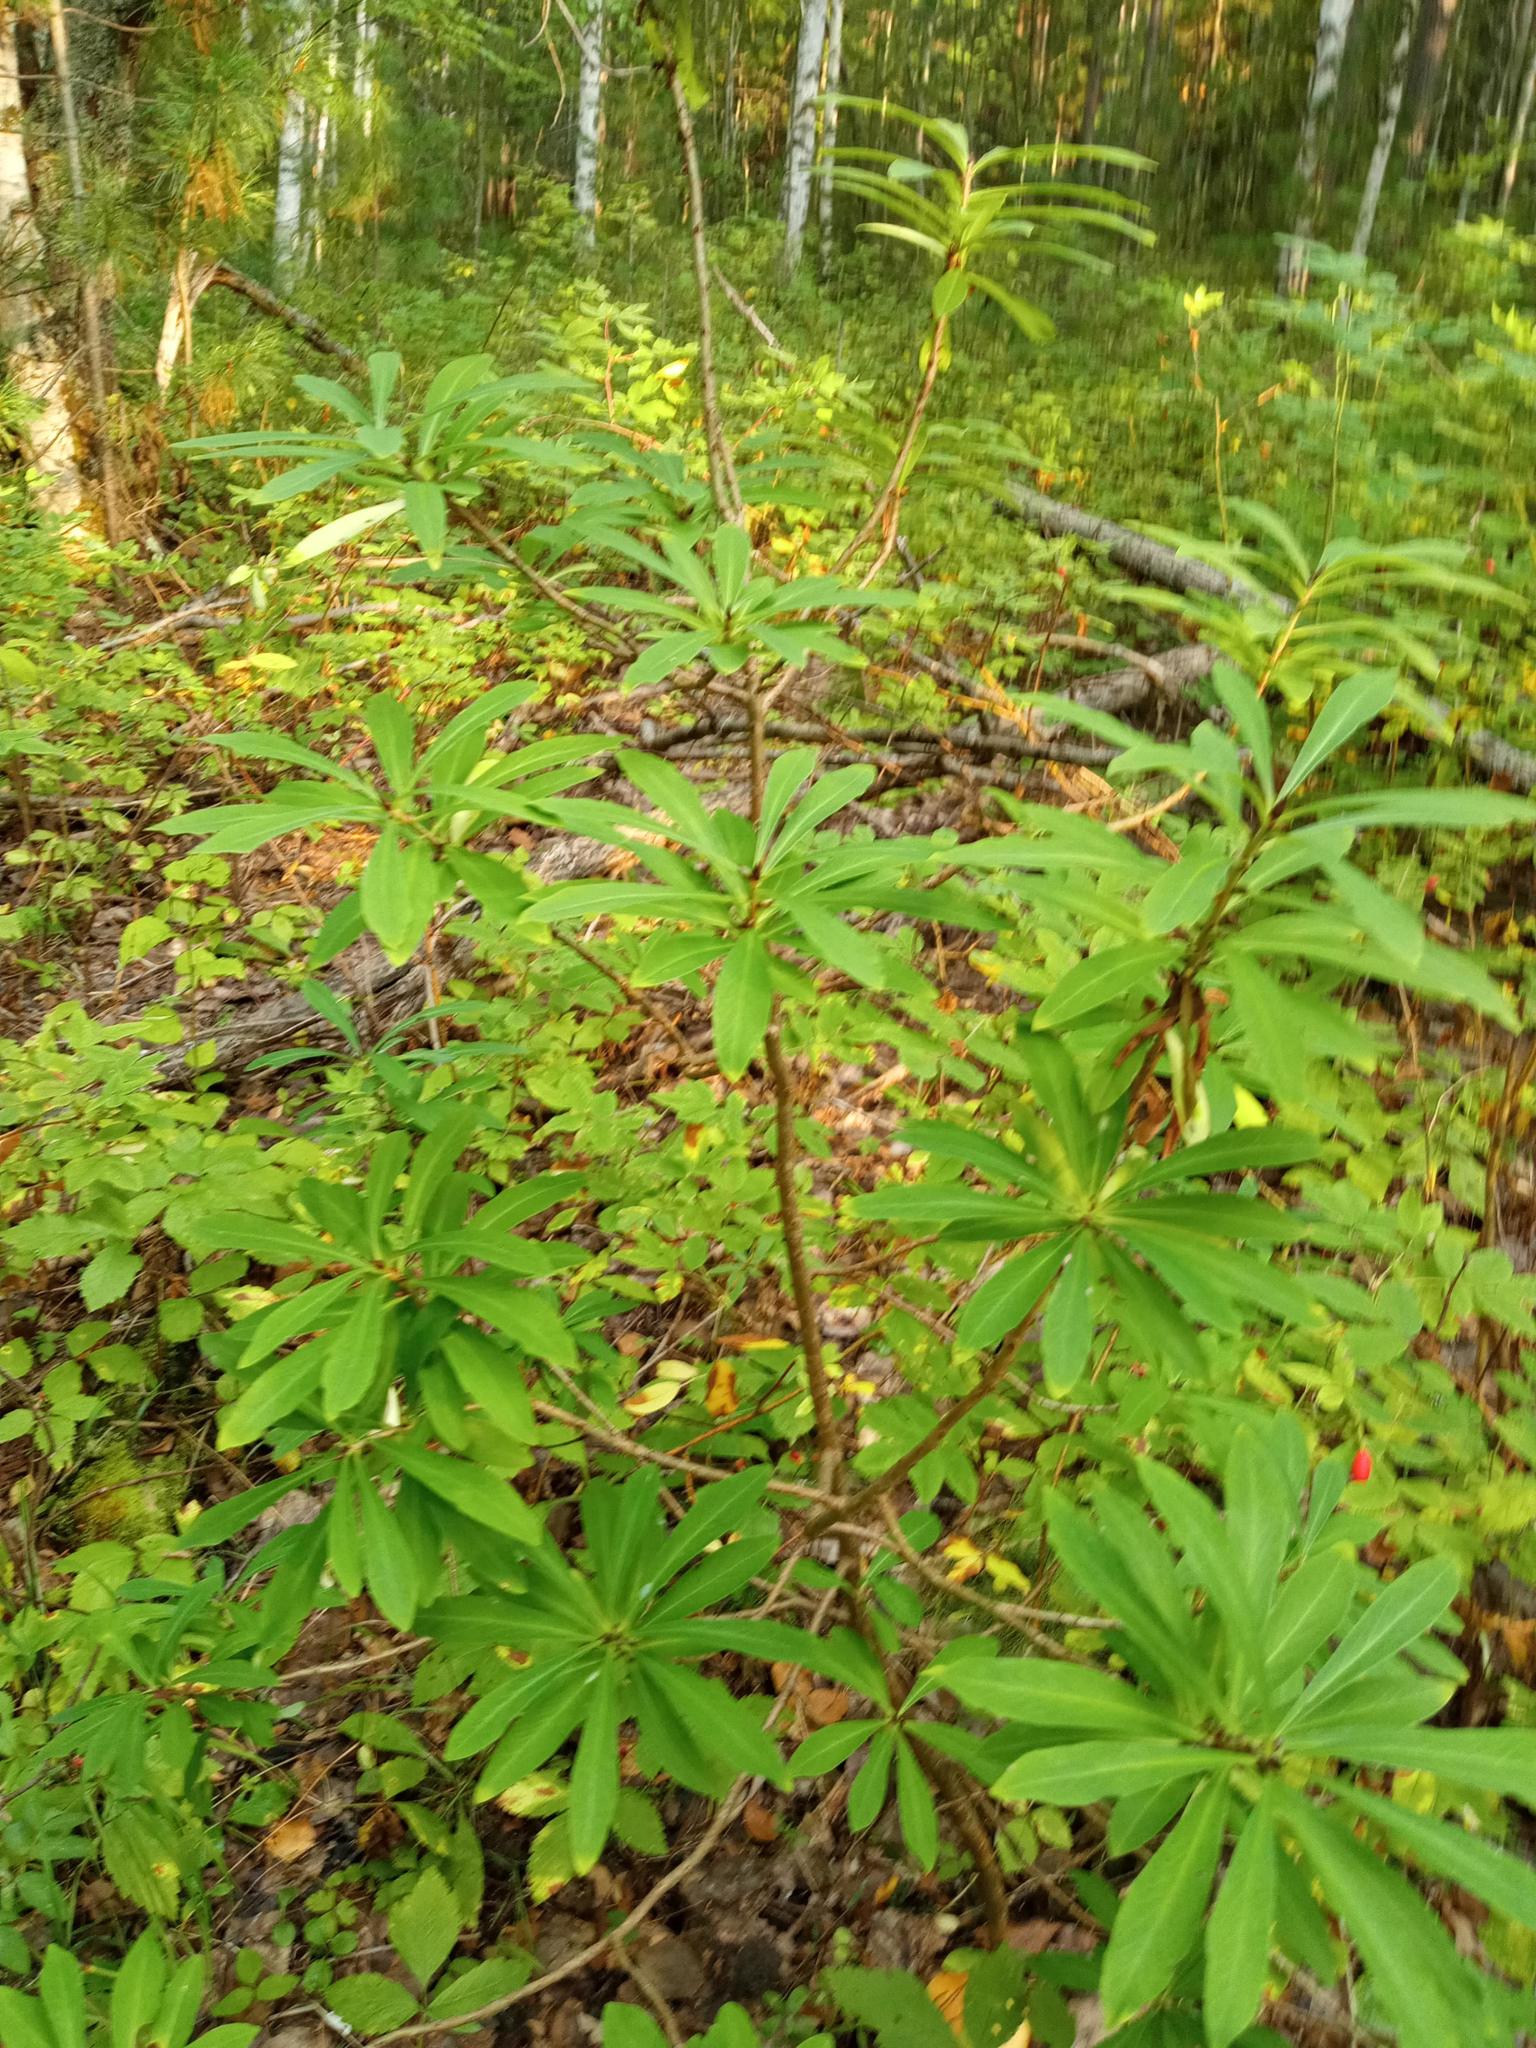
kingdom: Plantae
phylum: Tracheophyta
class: Magnoliopsida
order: Malvales
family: Thymelaeaceae
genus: Daphne
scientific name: Daphne mezereum
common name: Mezereon
